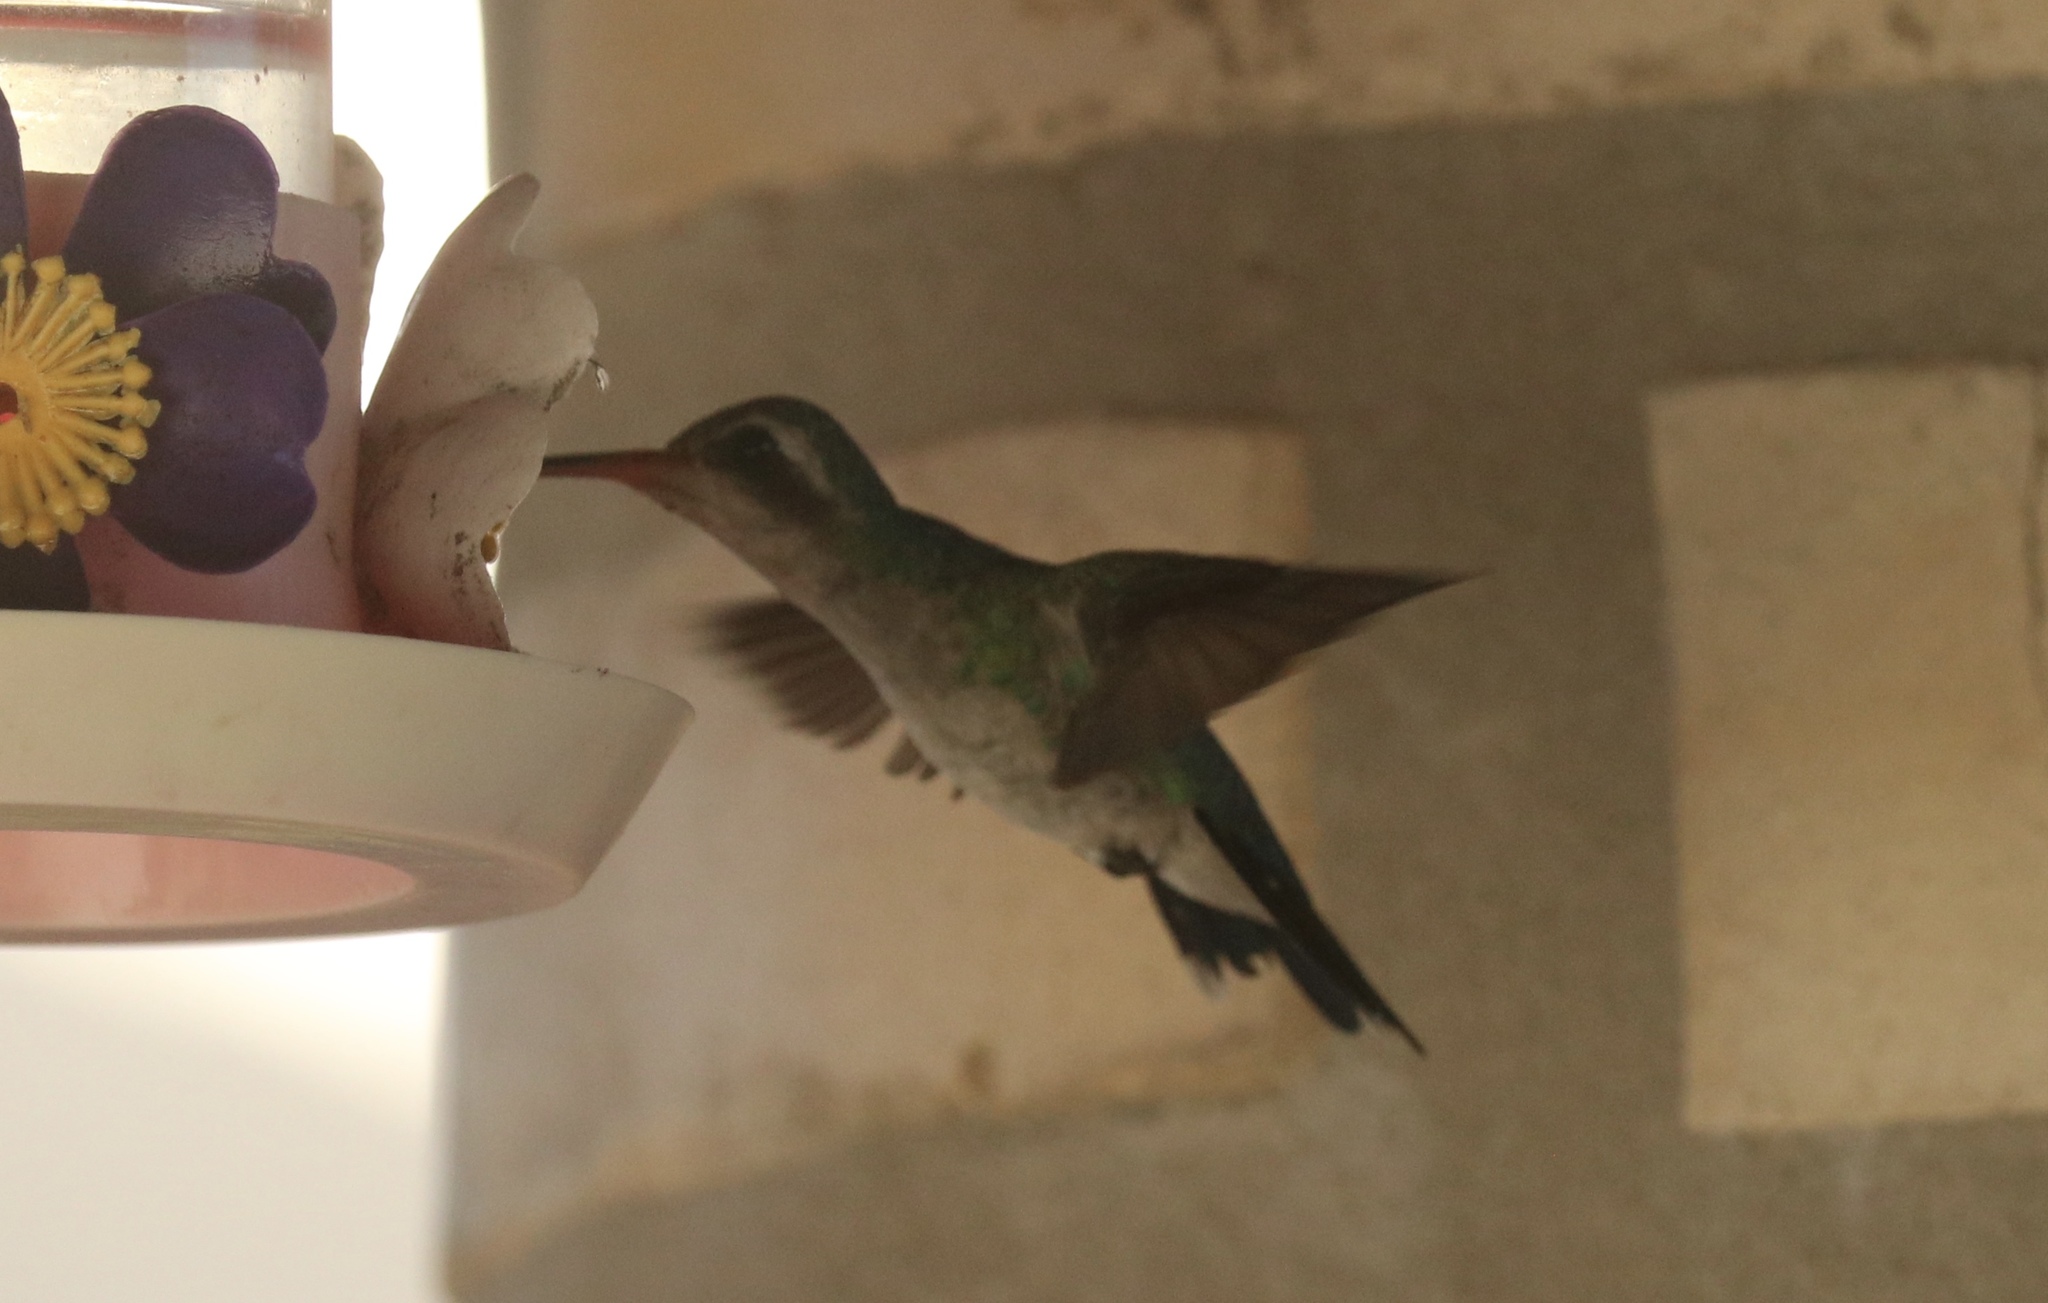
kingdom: Animalia
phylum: Chordata
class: Aves
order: Apodiformes
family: Trochilidae
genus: Chlorostilbon
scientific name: Chlorostilbon lucidus
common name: Glittering-bellied emerald
